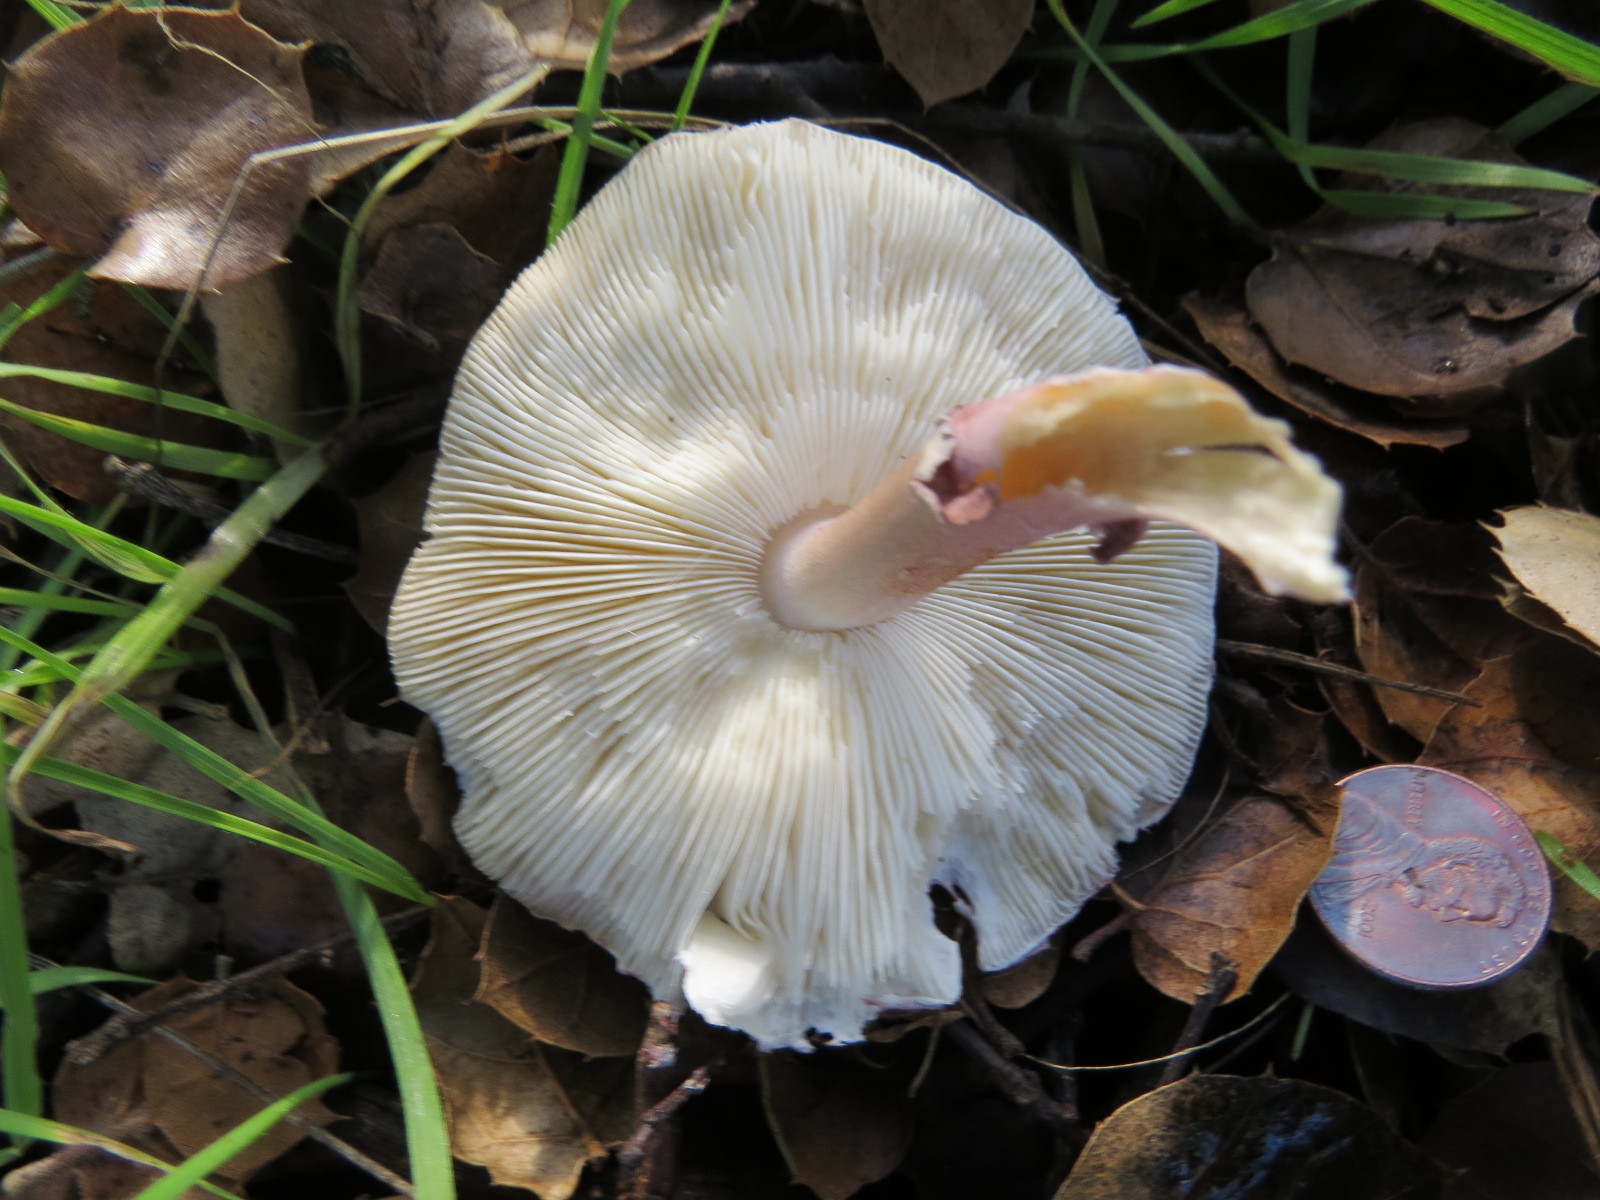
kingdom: Fungi
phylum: Basidiomycota
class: Agaricomycetes
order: Agaricales
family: Agaricaceae
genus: Lepiota
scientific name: Lepiota decorata
